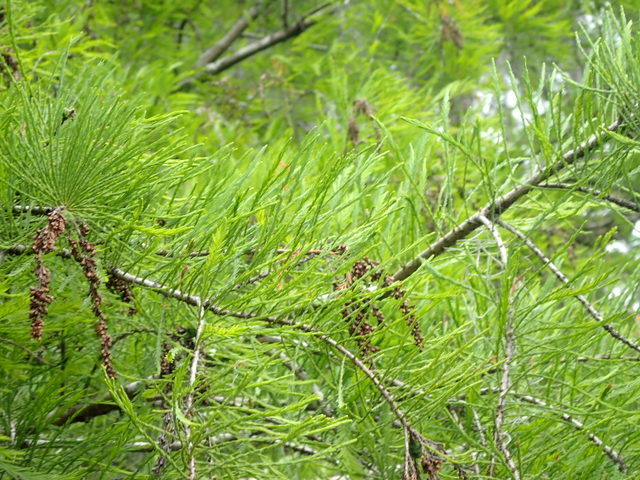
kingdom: Plantae
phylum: Tracheophyta
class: Pinopsida
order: Pinales
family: Cupressaceae
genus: Taxodium
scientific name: Taxodium distichum
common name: Bald cypress
